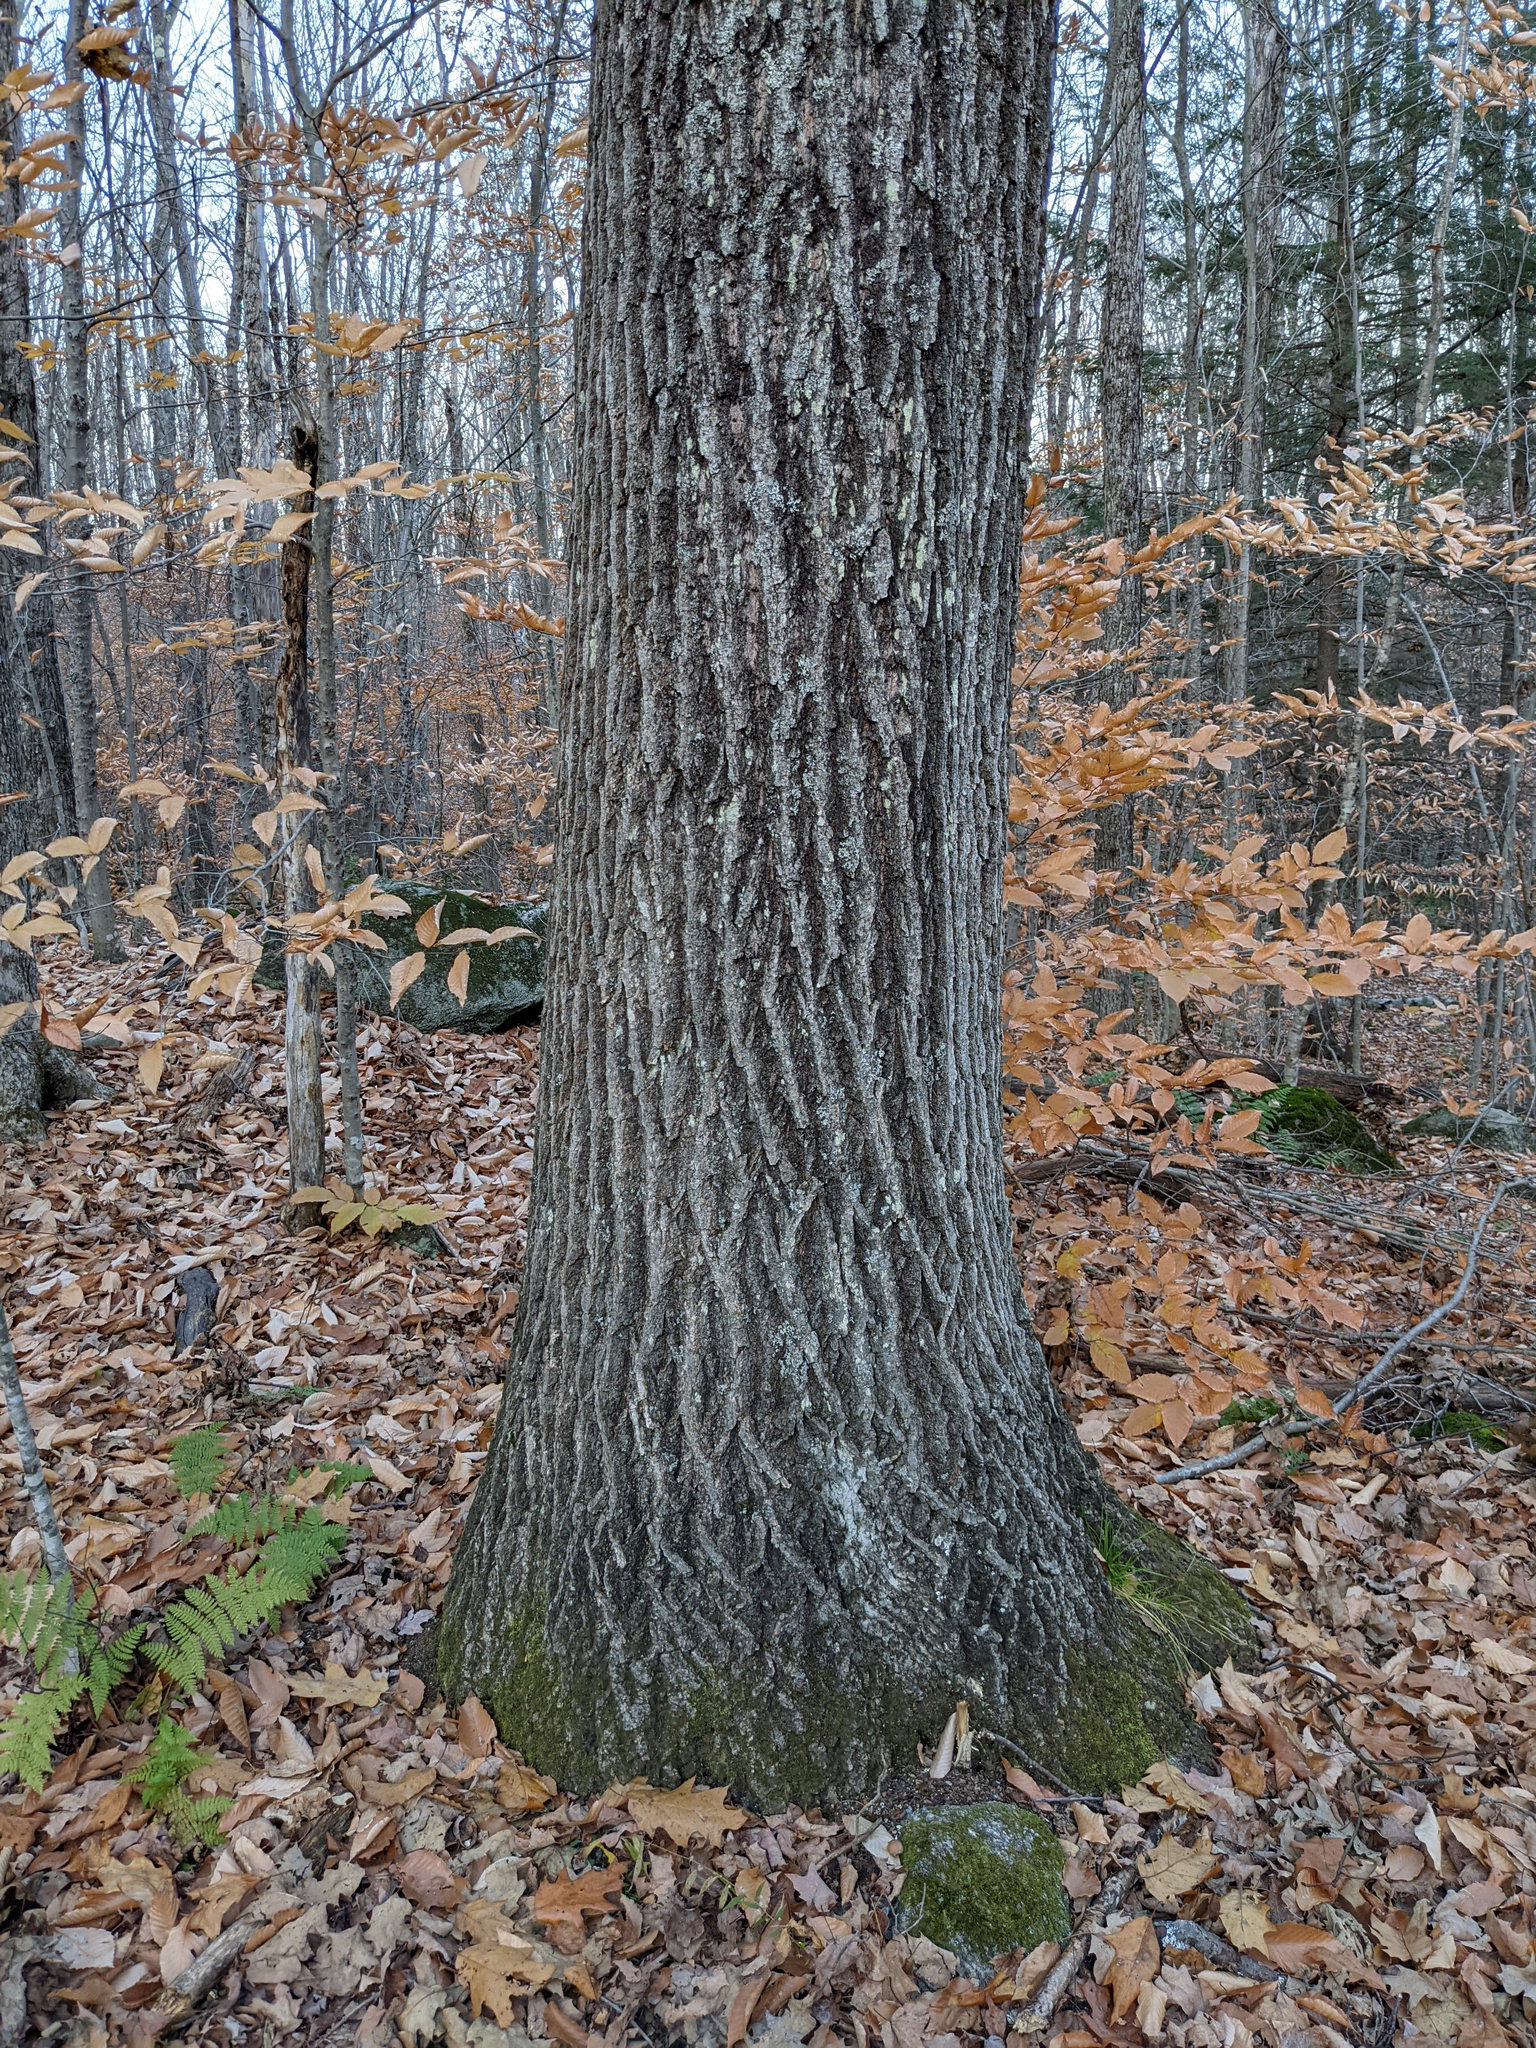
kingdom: Plantae
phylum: Tracheophyta
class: Magnoliopsida
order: Fagales
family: Fagaceae
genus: Quercus
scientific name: Quercus rubra
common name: Red oak
